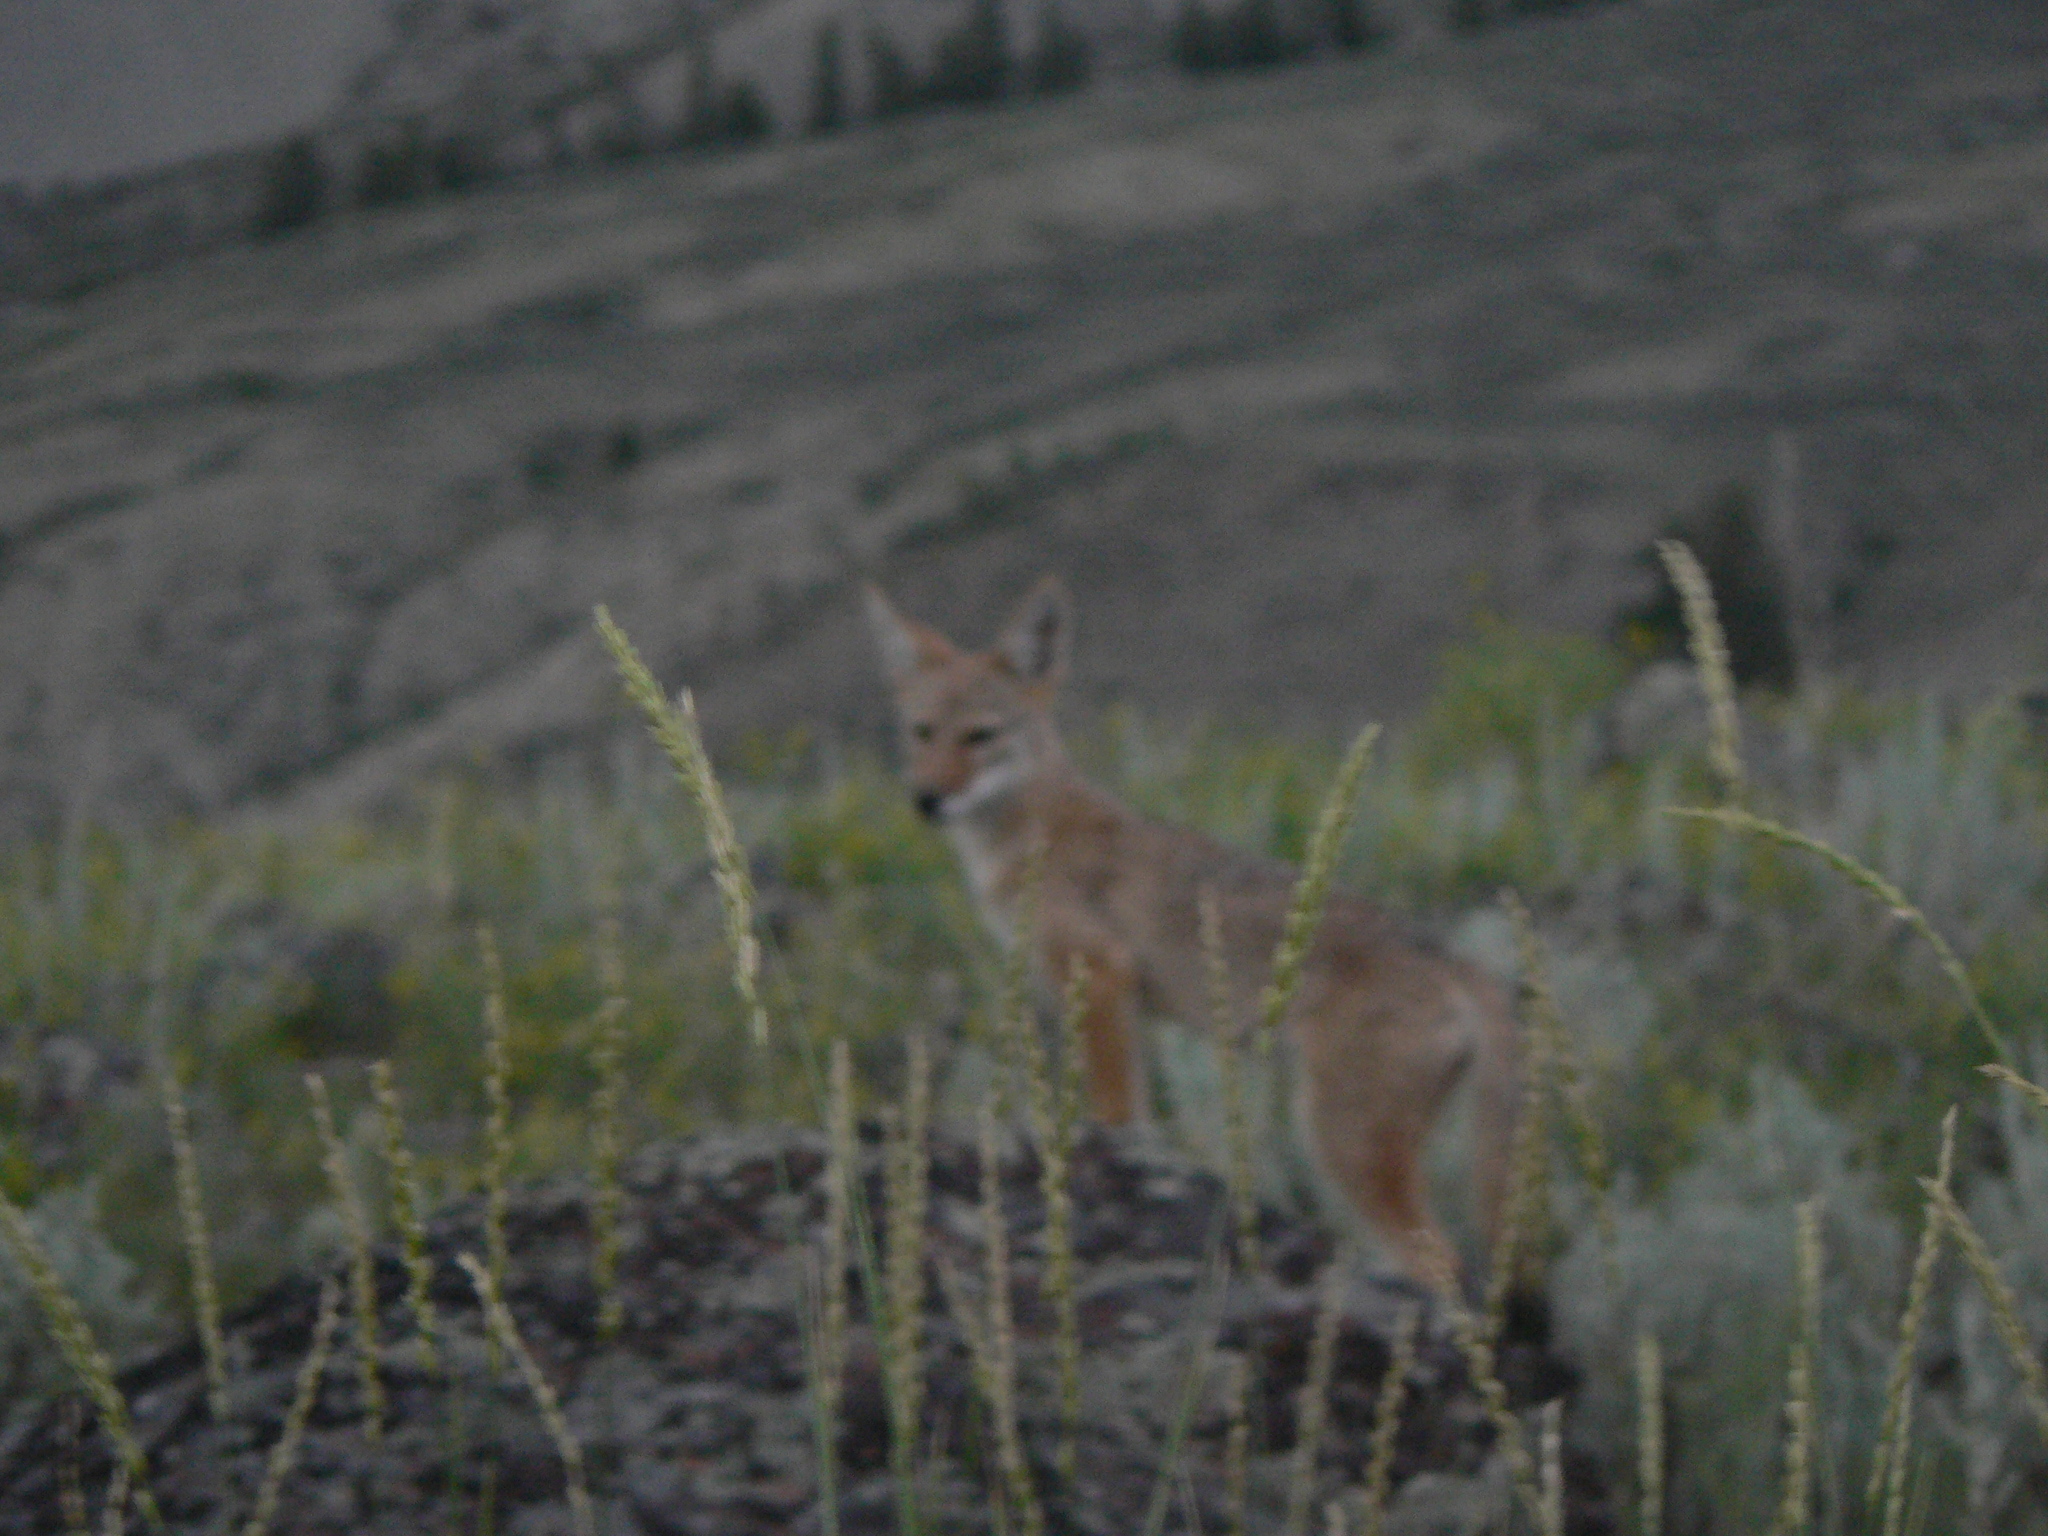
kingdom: Animalia
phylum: Chordata
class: Mammalia
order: Carnivora
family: Canidae
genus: Canis
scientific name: Canis latrans
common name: Coyote
